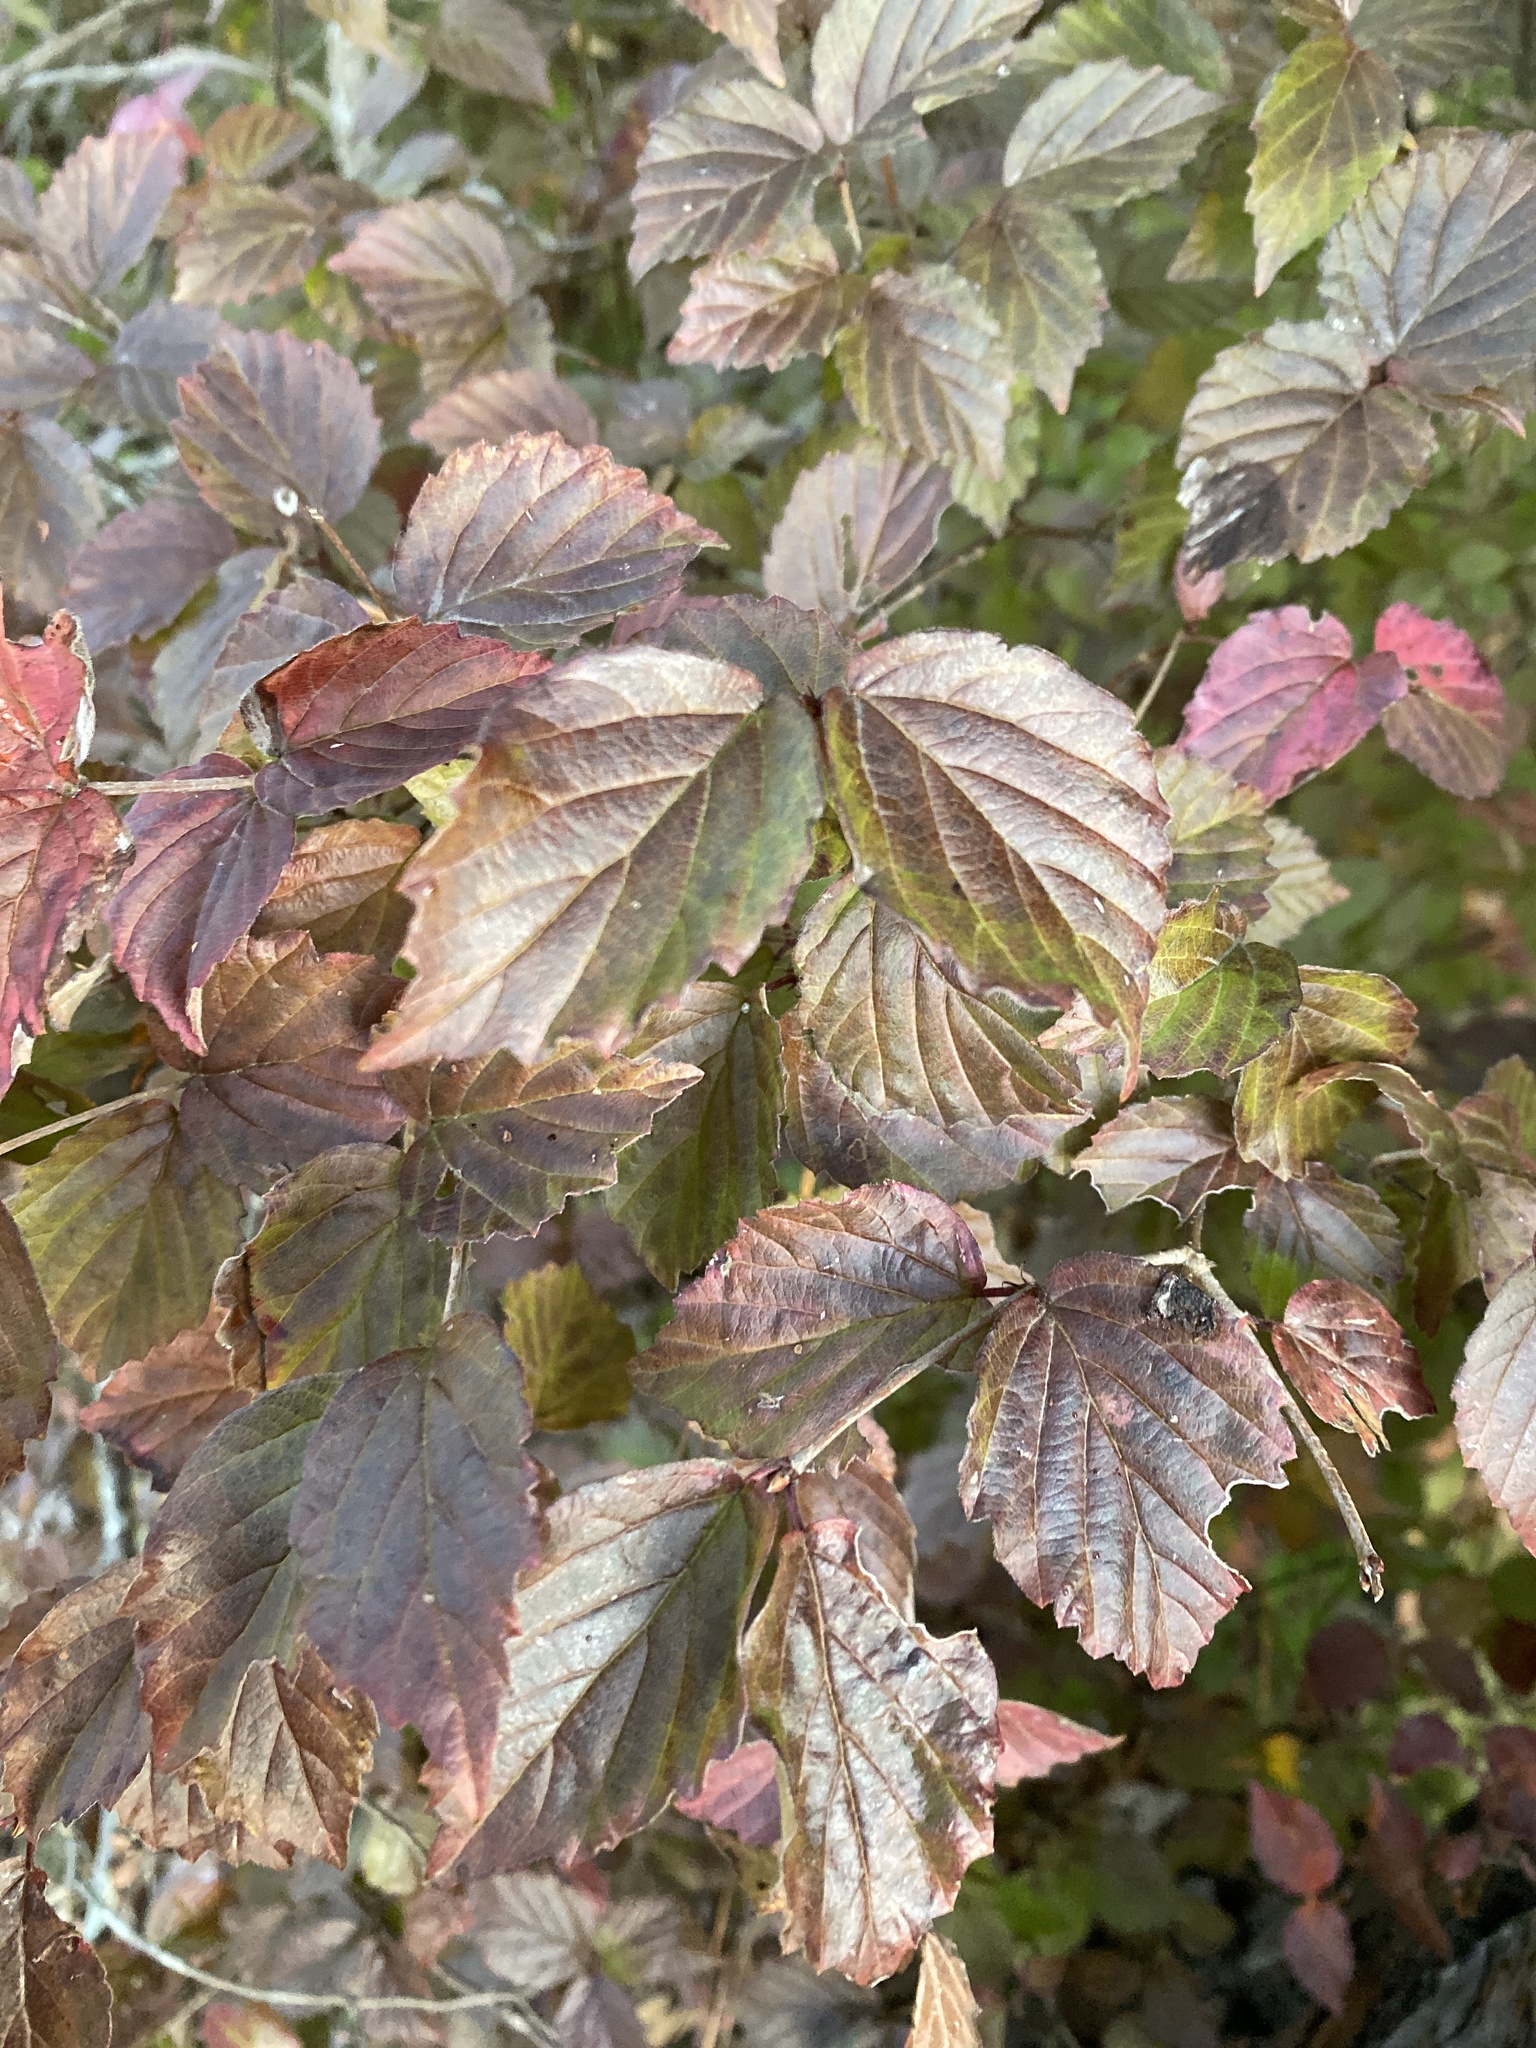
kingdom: Plantae
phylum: Tracheophyta
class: Magnoliopsida
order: Dipsacales
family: Viburnaceae
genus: Viburnum
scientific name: Viburnum rafinesqueanum
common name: Downy arrow-wood
